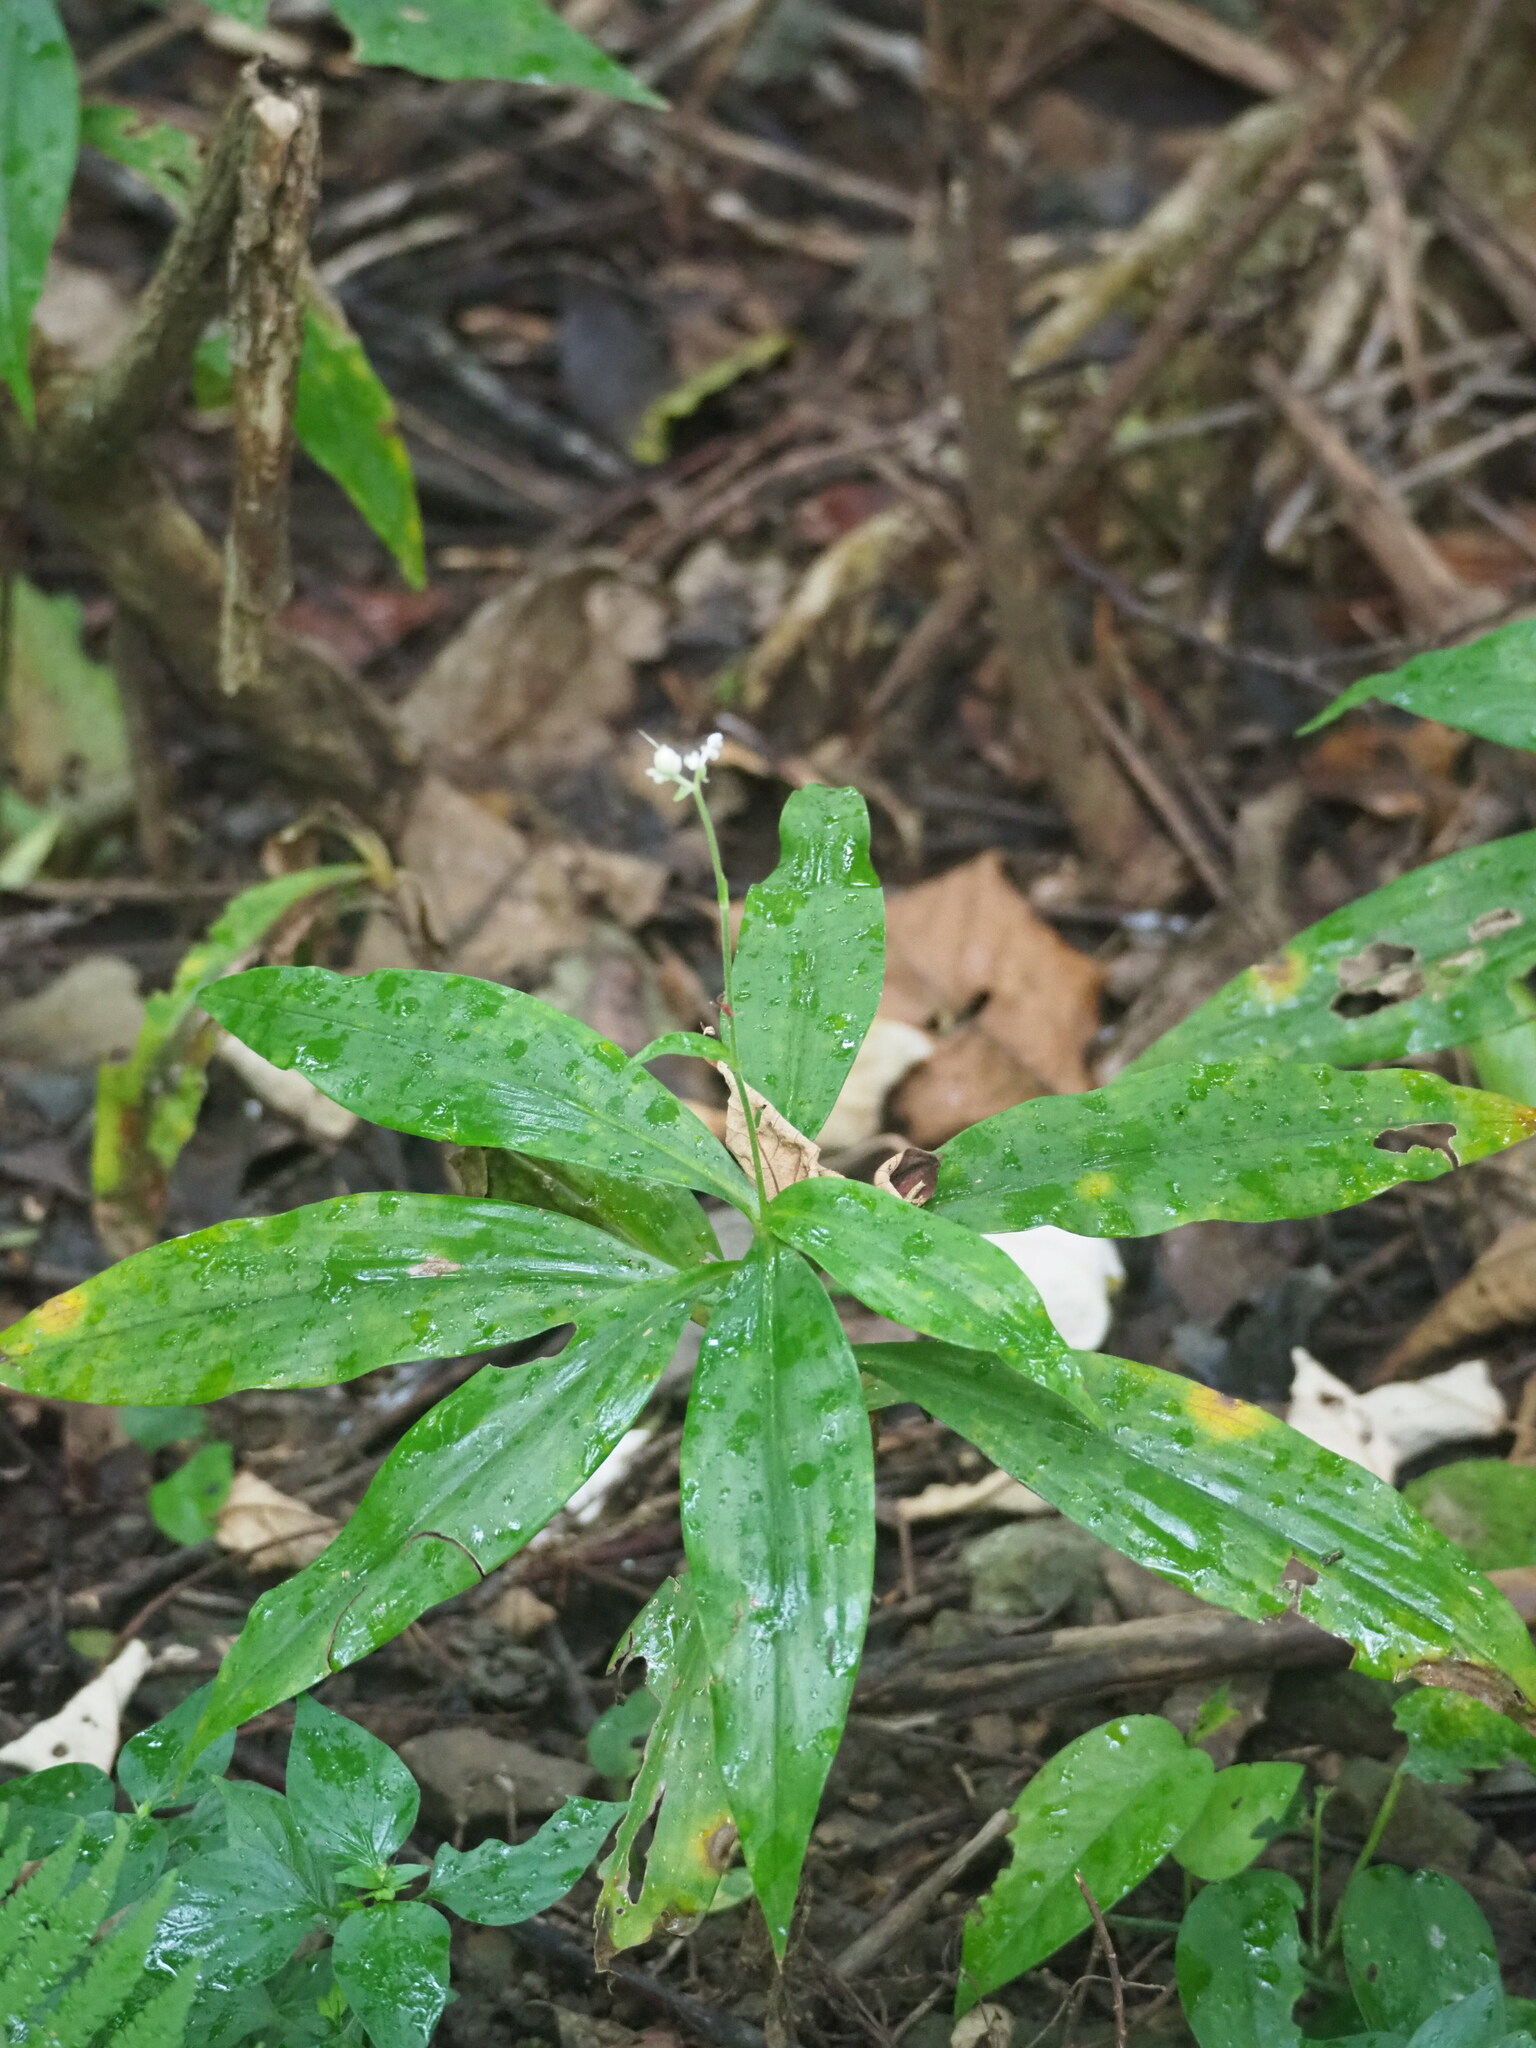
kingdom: Plantae
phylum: Tracheophyta
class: Liliopsida
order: Commelinales
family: Commelinaceae
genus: Pollia
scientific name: Pollia miranda
